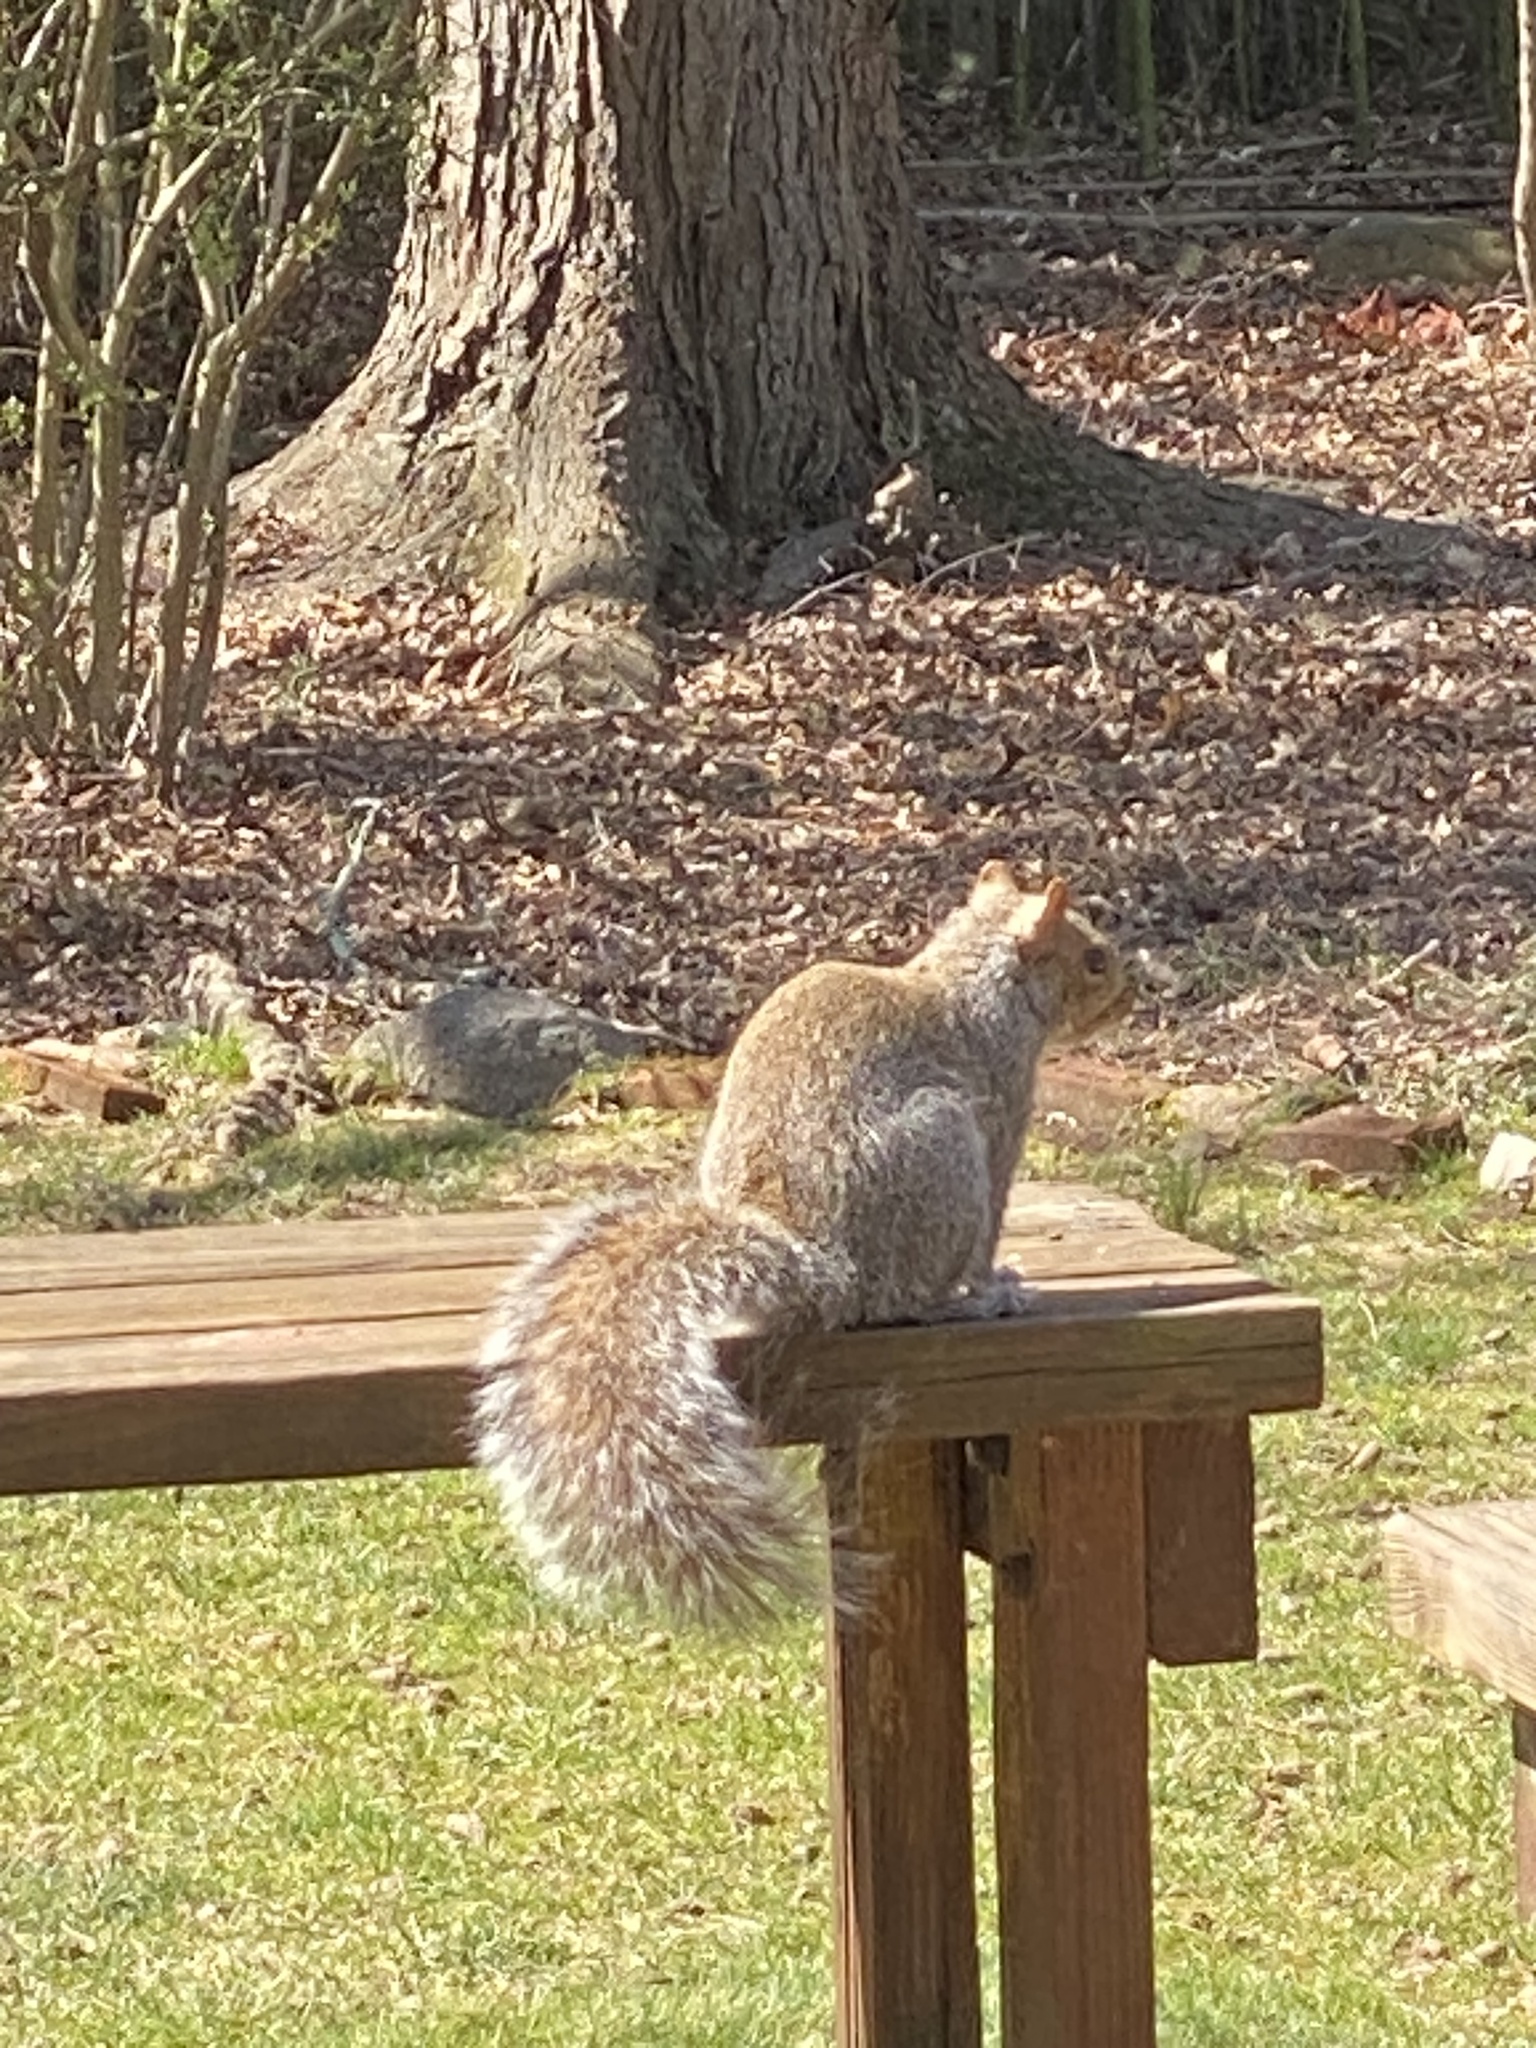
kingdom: Animalia
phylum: Chordata
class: Mammalia
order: Rodentia
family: Sciuridae
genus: Sciurus
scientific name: Sciurus carolinensis
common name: Eastern gray squirrel
